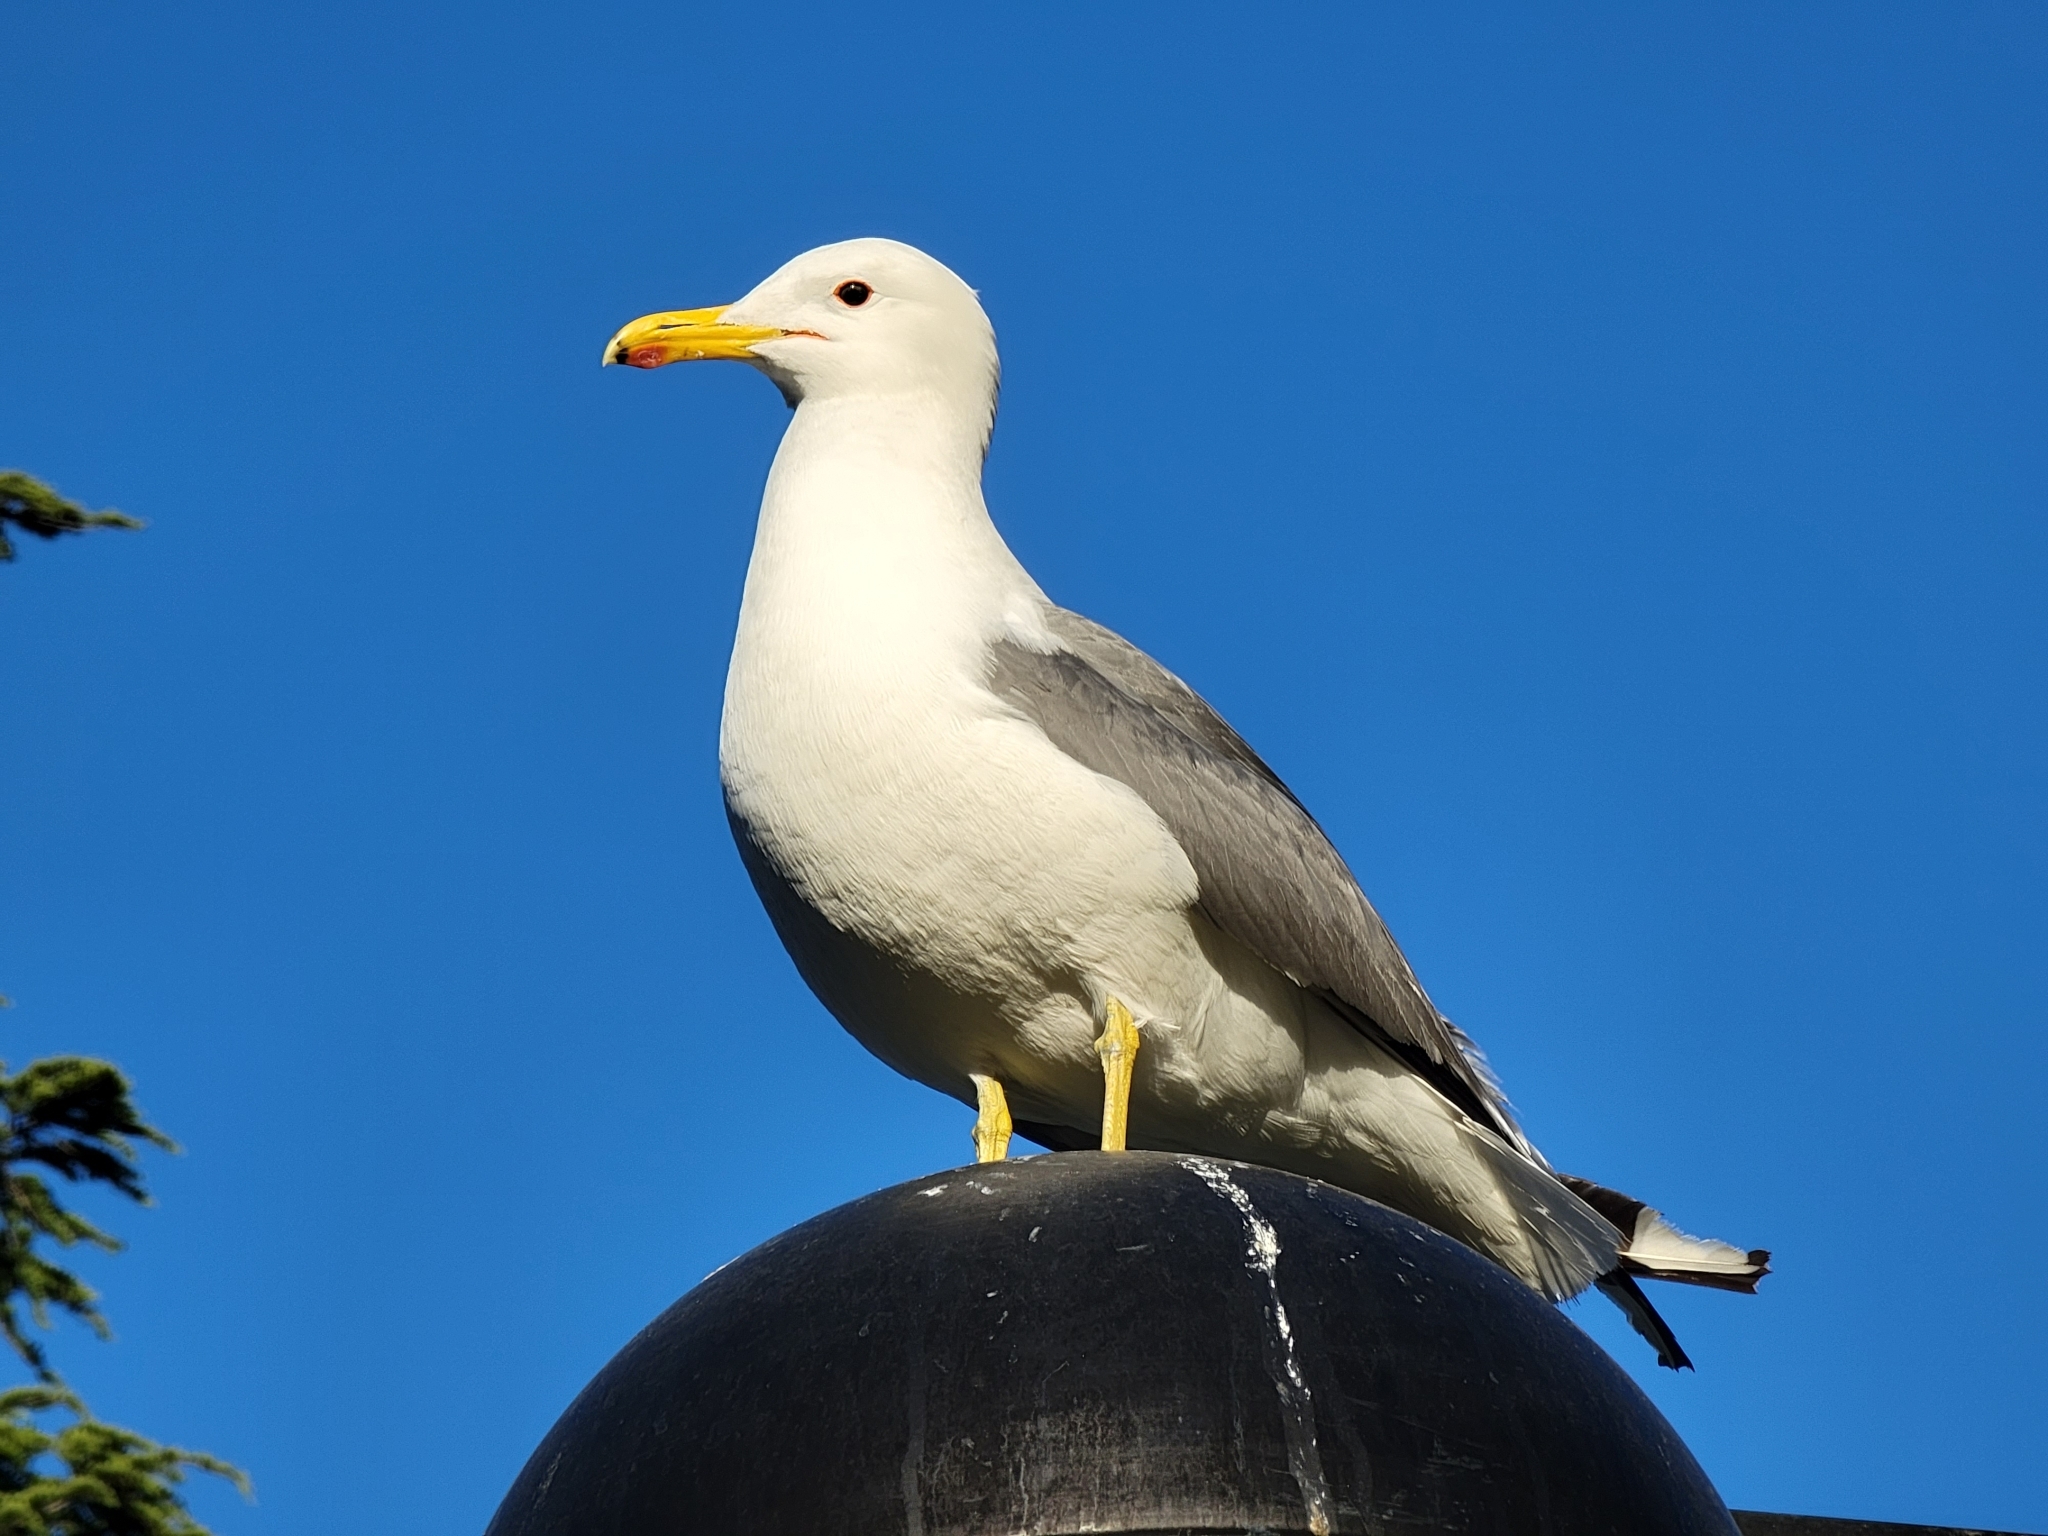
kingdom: Animalia
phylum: Chordata
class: Aves
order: Charadriiformes
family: Laridae
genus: Larus
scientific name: Larus californicus
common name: California gull
